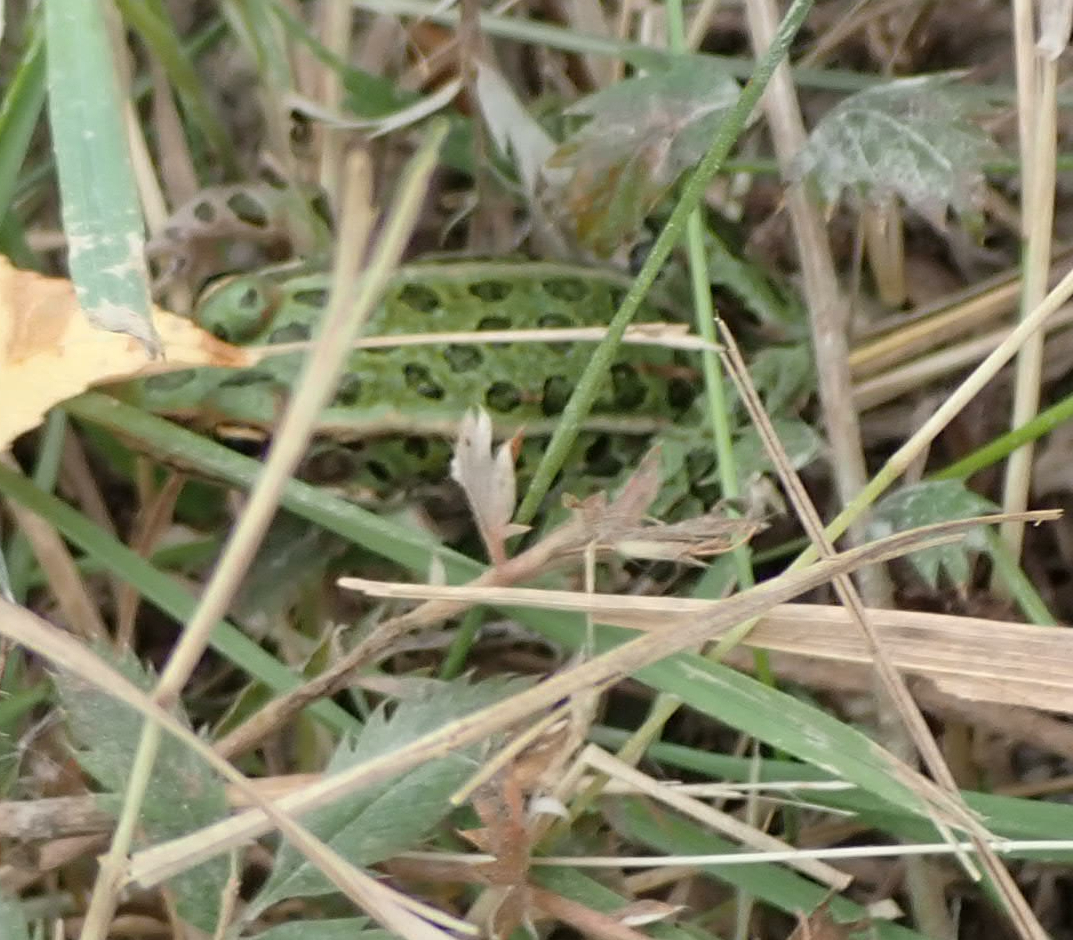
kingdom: Animalia
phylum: Chordata
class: Amphibia
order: Anura
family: Ranidae
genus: Lithobates
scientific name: Lithobates pipiens
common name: Northern leopard frog
